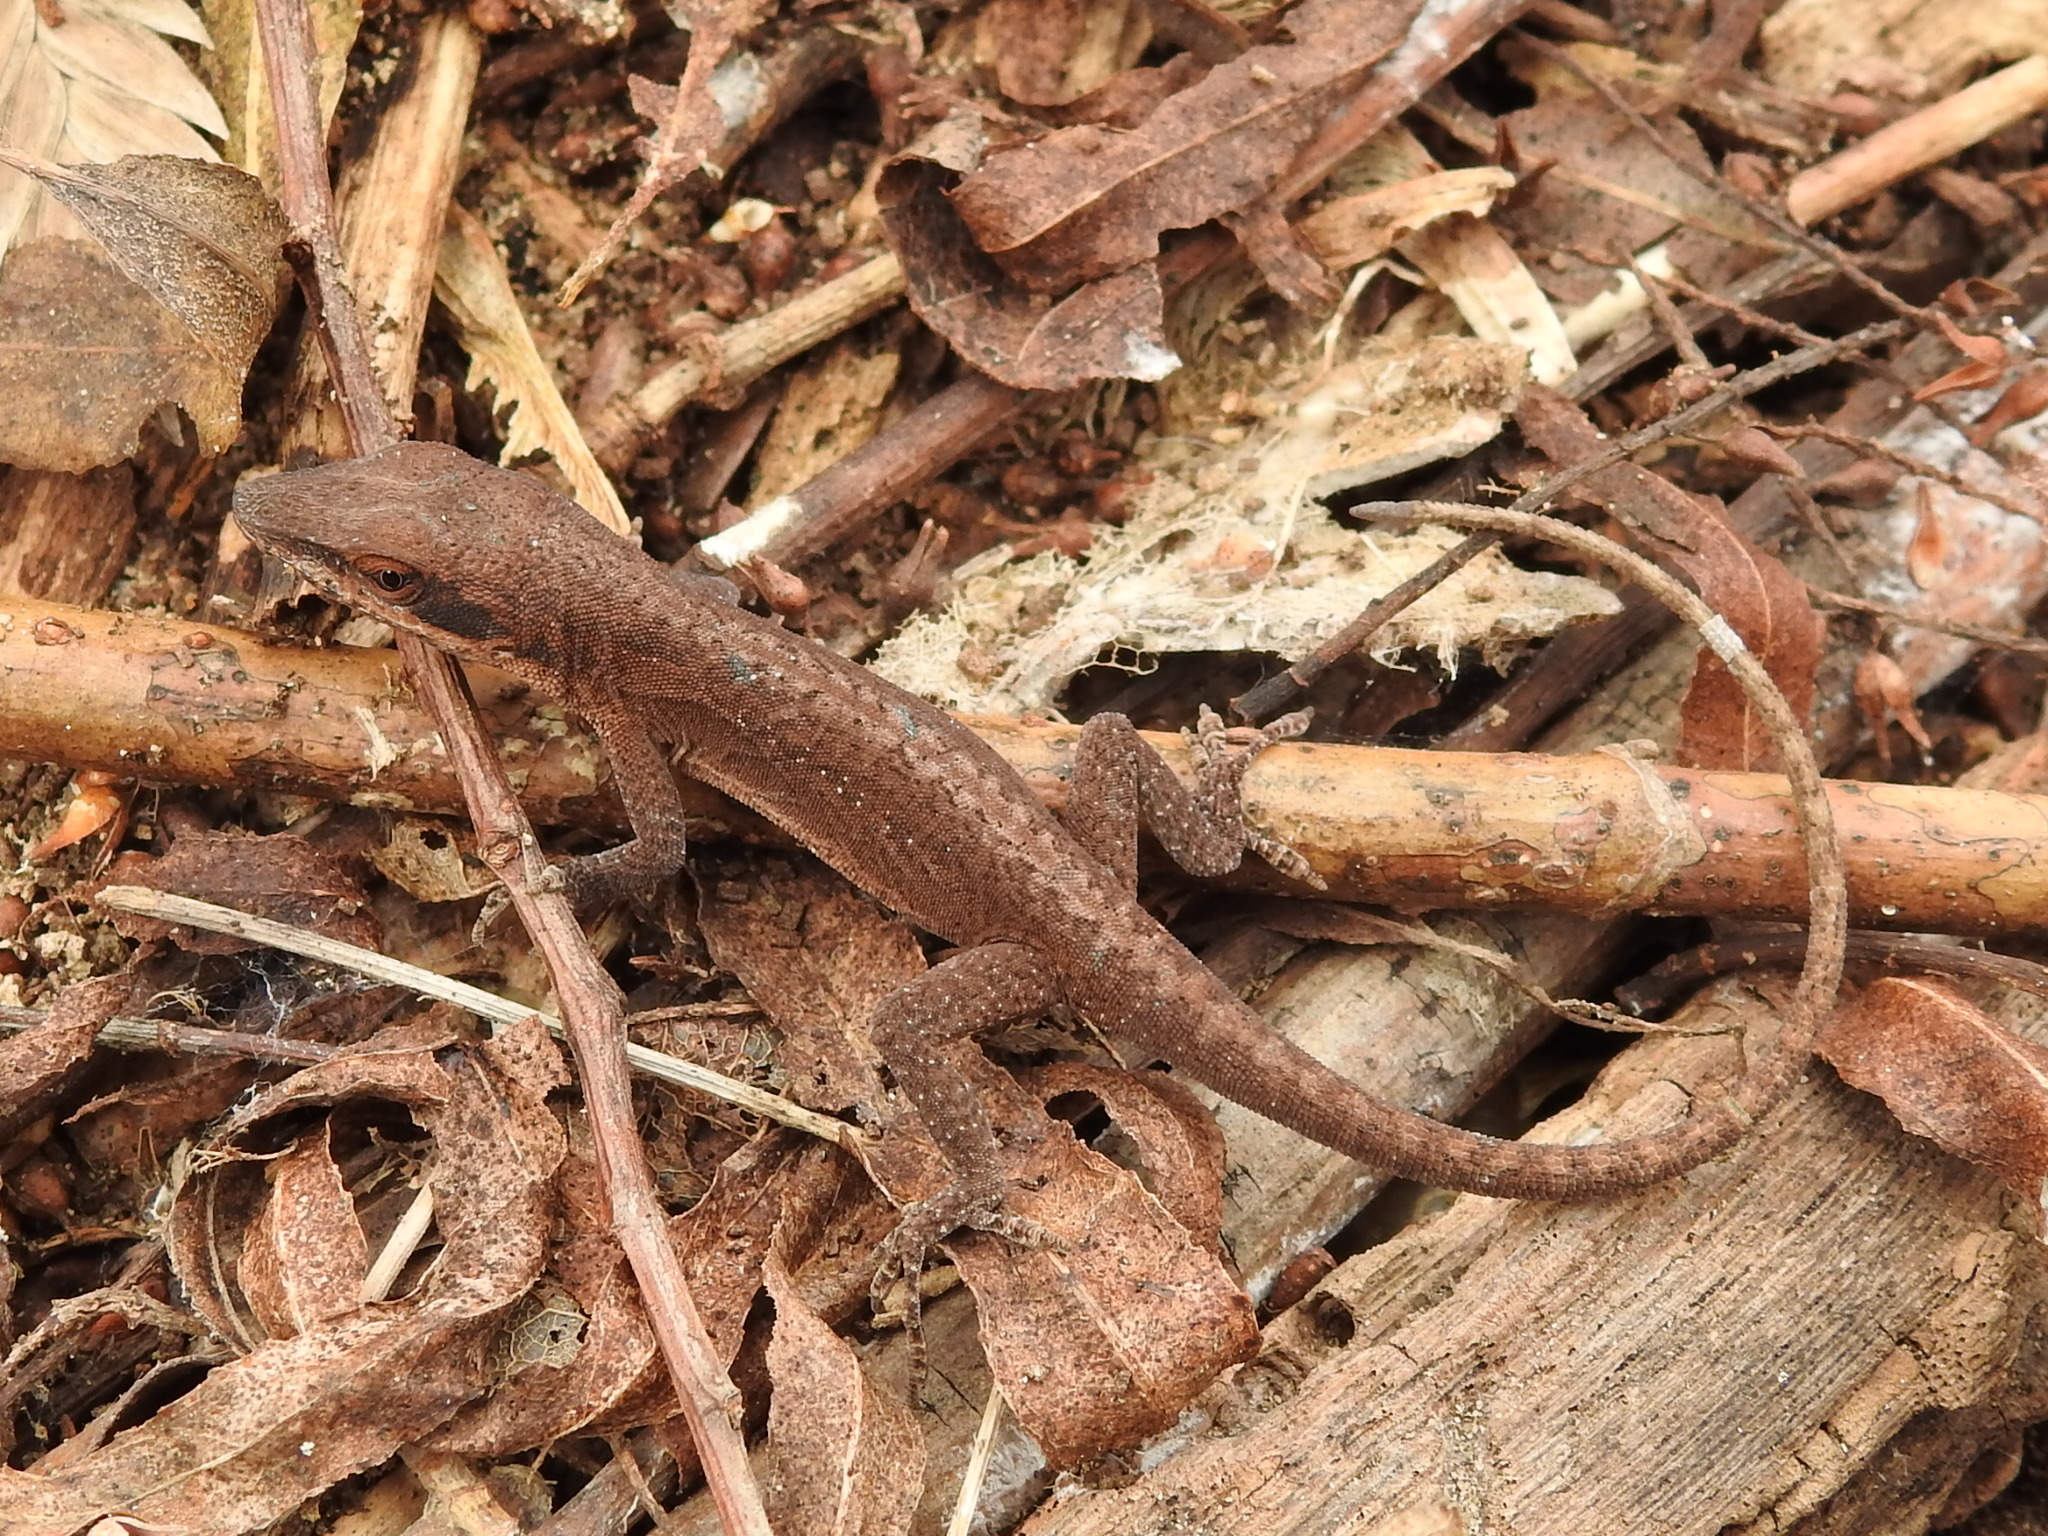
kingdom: Animalia
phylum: Chordata
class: Squamata
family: Dactyloidae
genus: Anolis
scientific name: Anolis carolinensis
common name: Green anole
